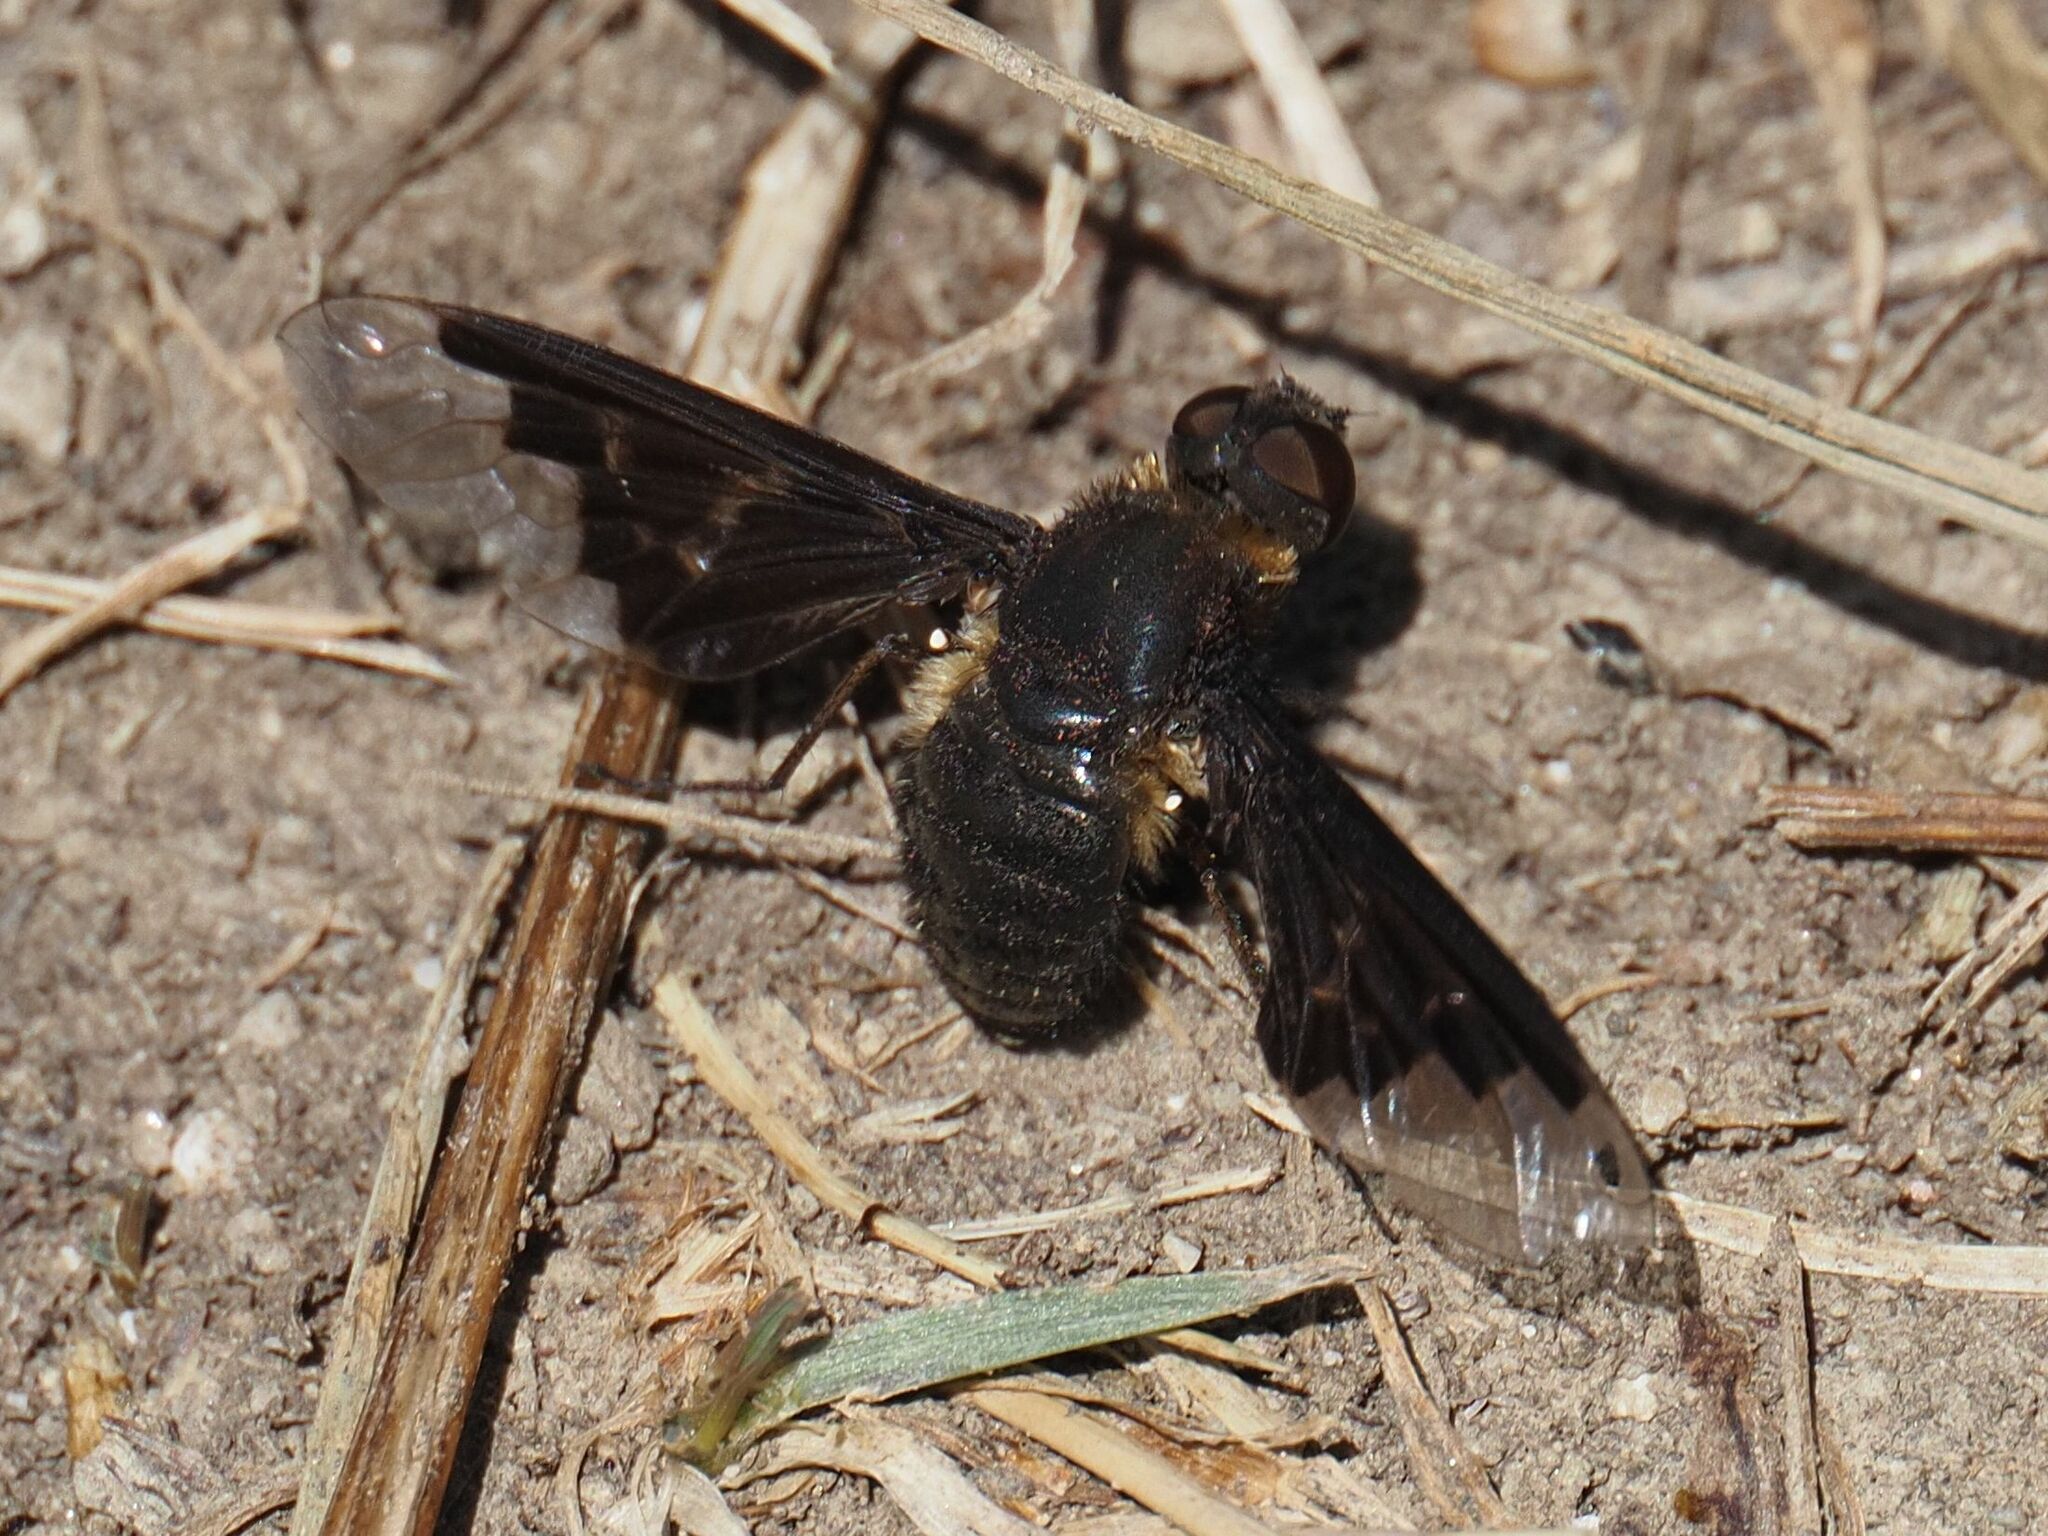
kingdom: Animalia
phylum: Arthropoda
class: Insecta
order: Diptera
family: Bombyliidae
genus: Hemipenthes
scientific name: Hemipenthes morio
